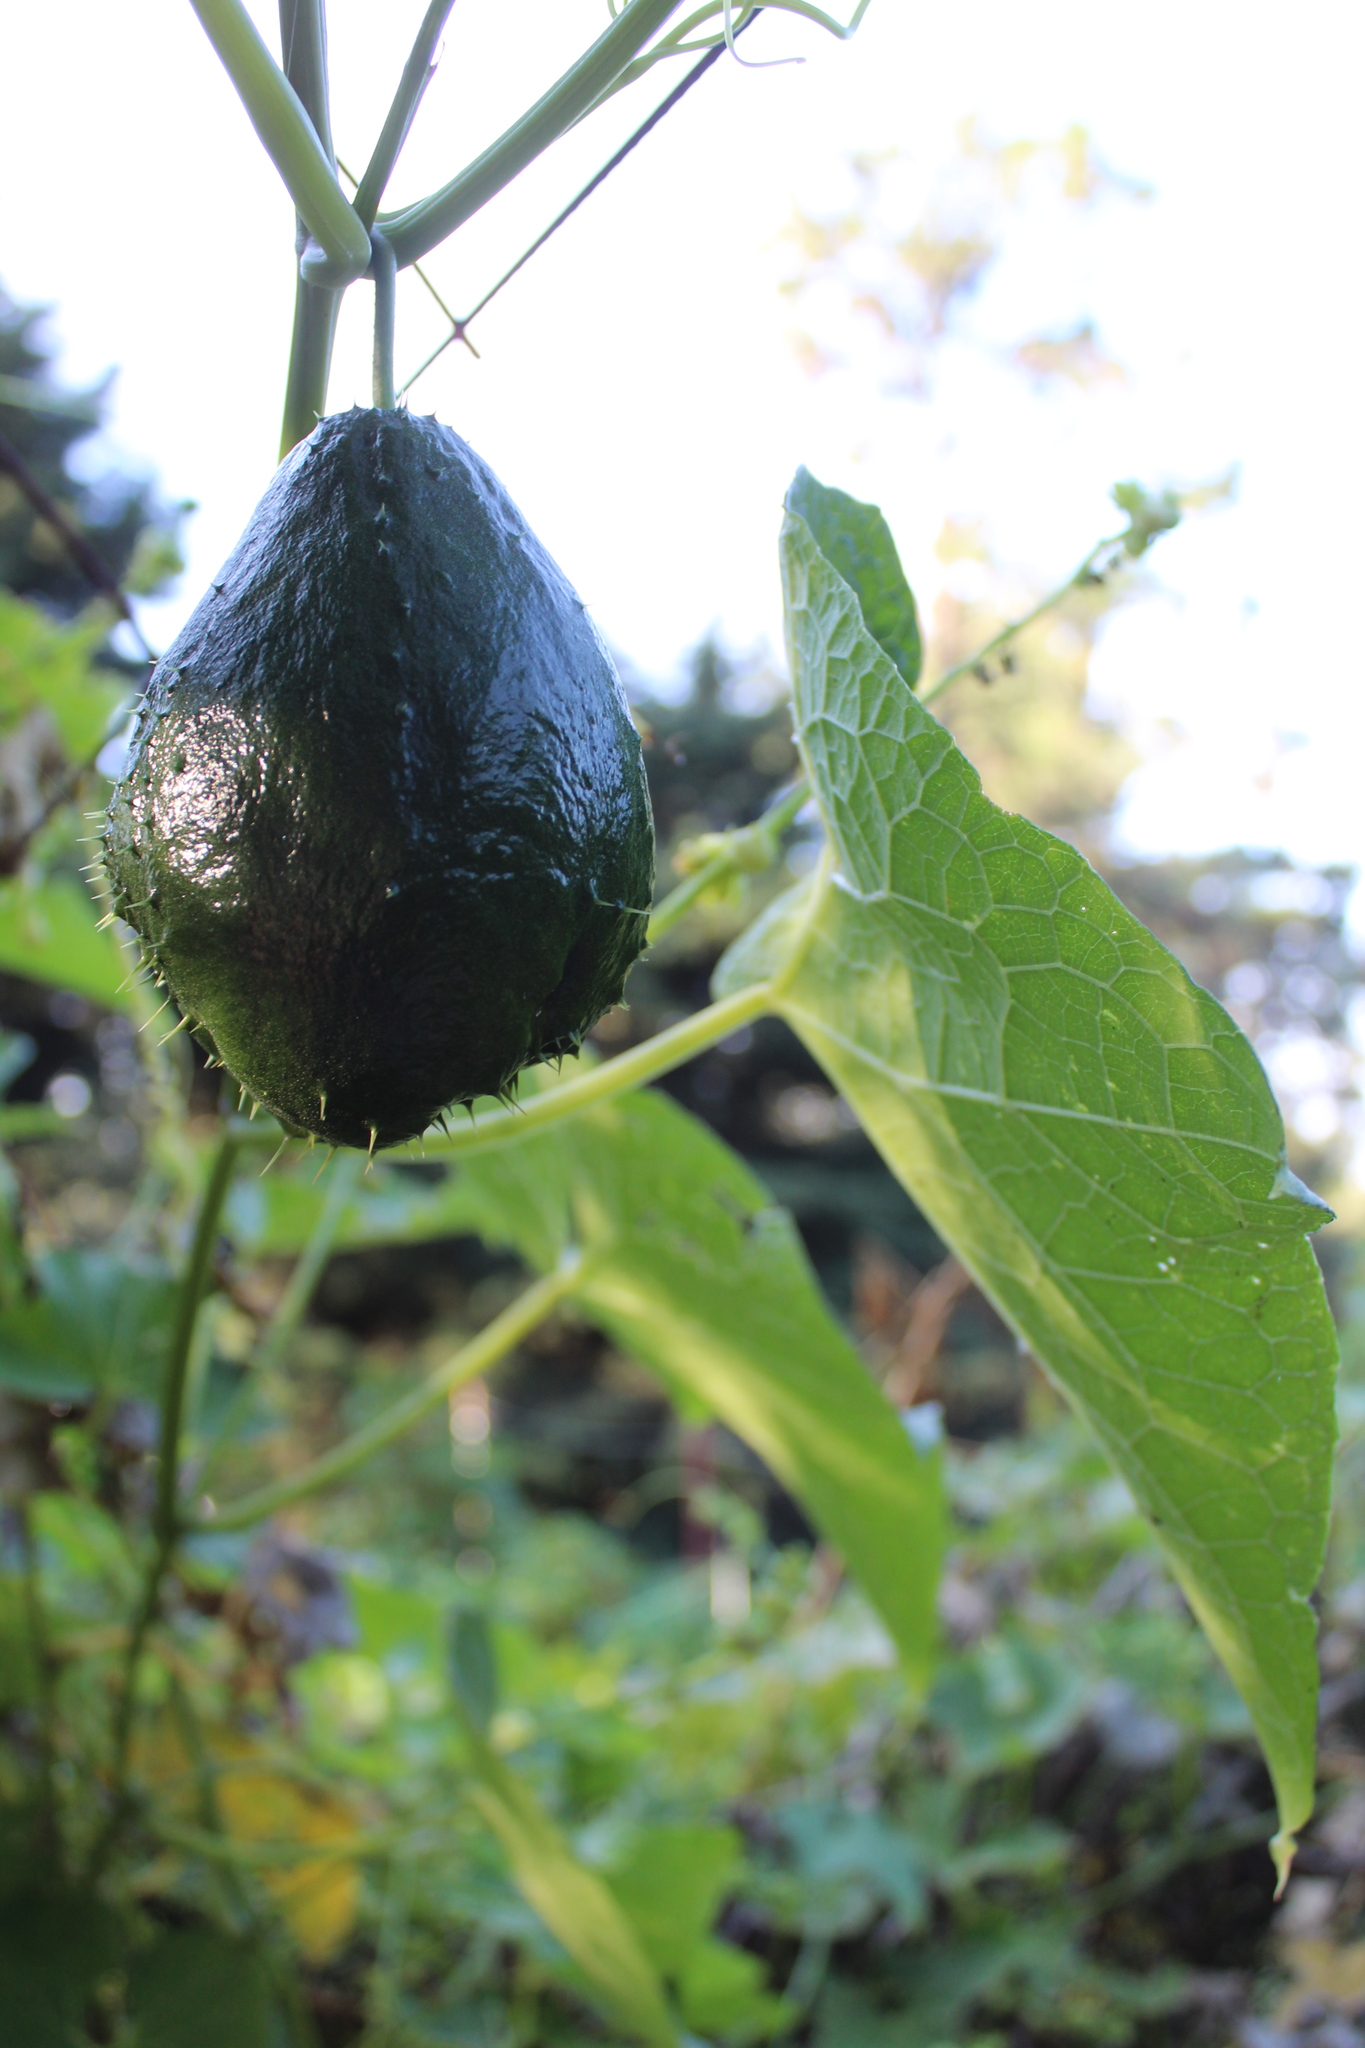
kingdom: Plantae
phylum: Tracheophyta
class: Magnoliopsida
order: Cucurbitales
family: Cucurbitaceae
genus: Sechium
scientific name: Sechium edule
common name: Chayote
